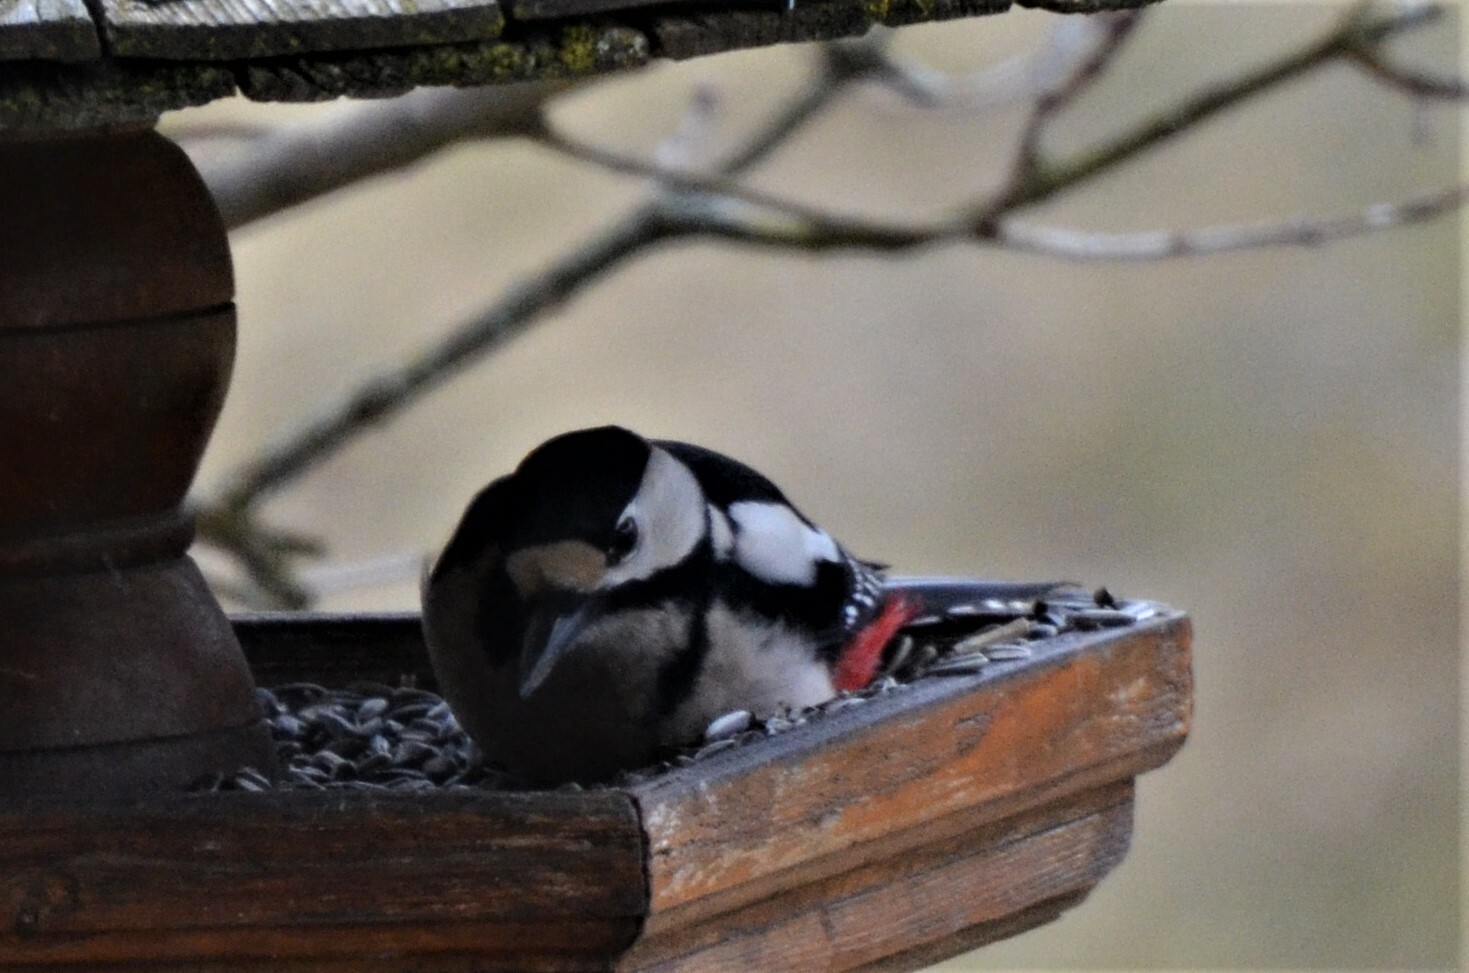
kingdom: Animalia
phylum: Chordata
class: Aves
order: Piciformes
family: Picidae
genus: Dendrocopos
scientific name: Dendrocopos major
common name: Great spotted woodpecker
